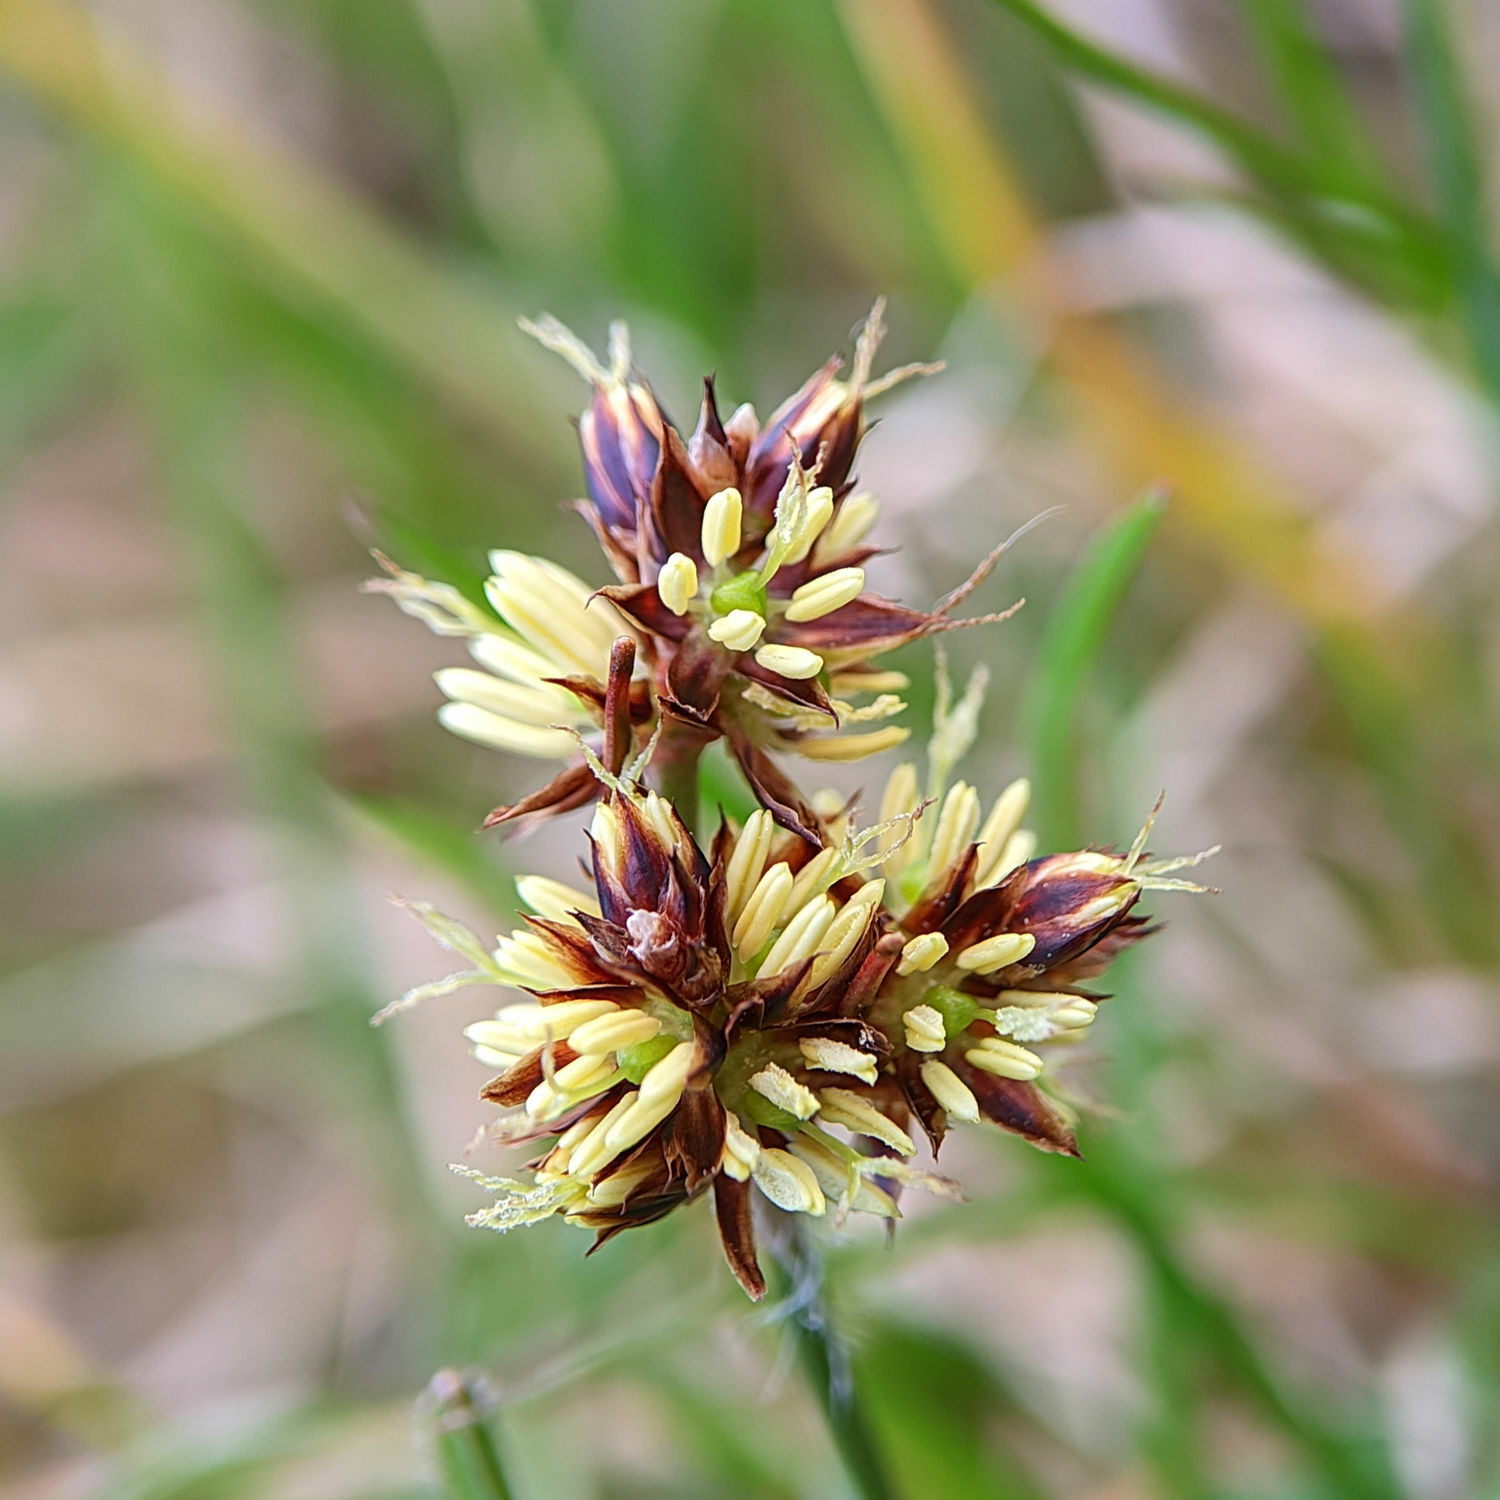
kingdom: Plantae
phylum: Tracheophyta
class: Liliopsida
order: Poales
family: Juncaceae
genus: Luzula
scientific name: Luzula campestris
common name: Field wood-rush
